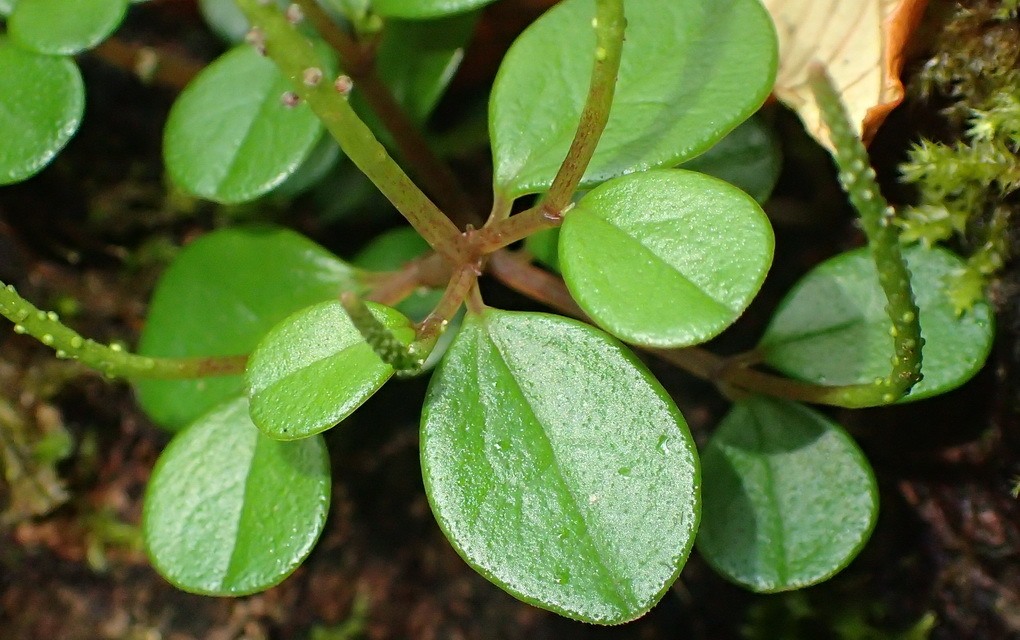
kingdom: Plantae
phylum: Tracheophyta
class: Magnoliopsida
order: Piperales
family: Piperaceae
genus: Peperomia
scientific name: Peperomia retusa
